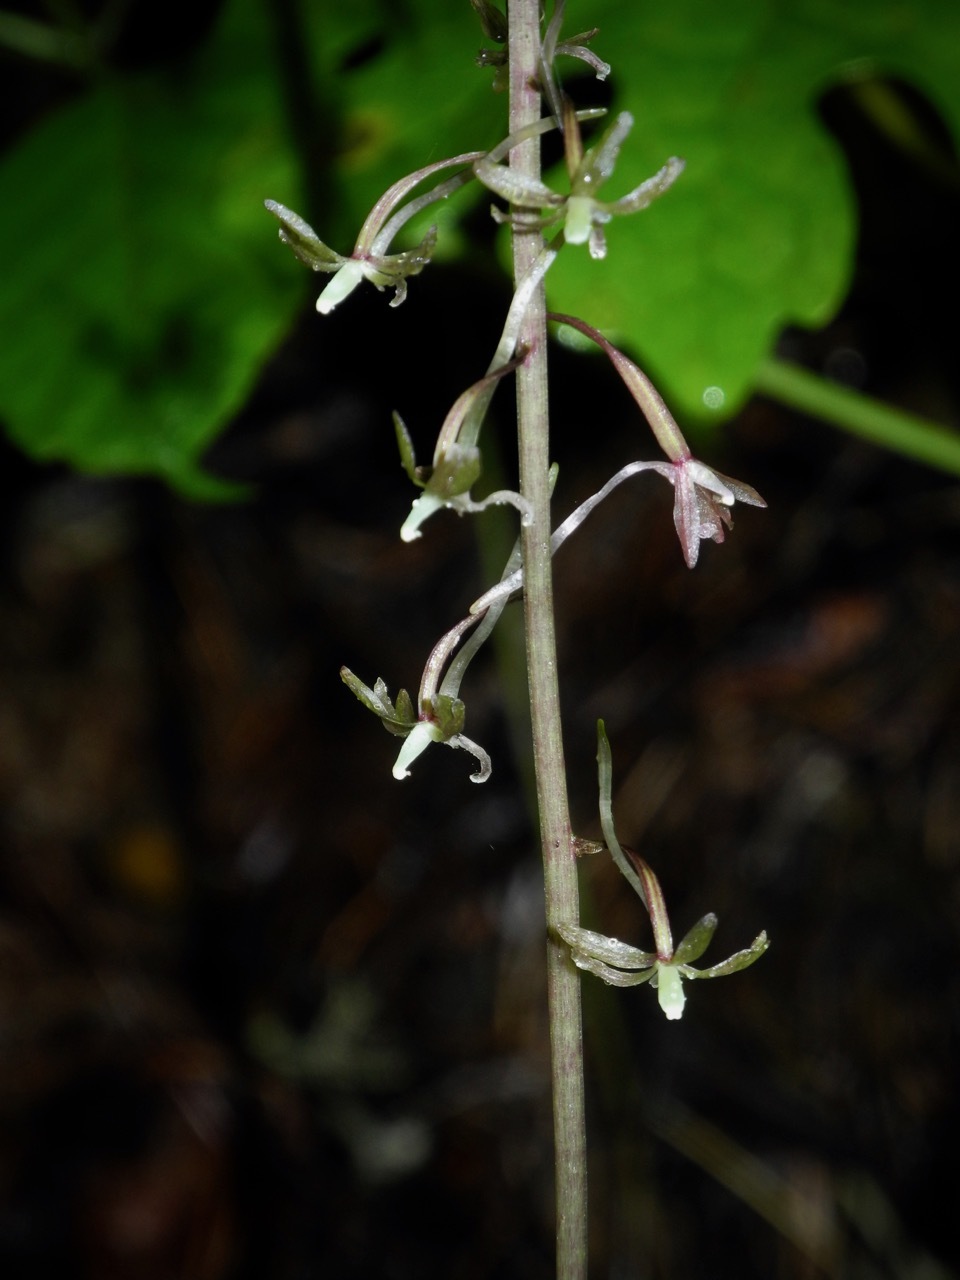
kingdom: Plantae
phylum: Tracheophyta
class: Liliopsida
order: Asparagales
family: Orchidaceae
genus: Tipularia
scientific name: Tipularia discolor
